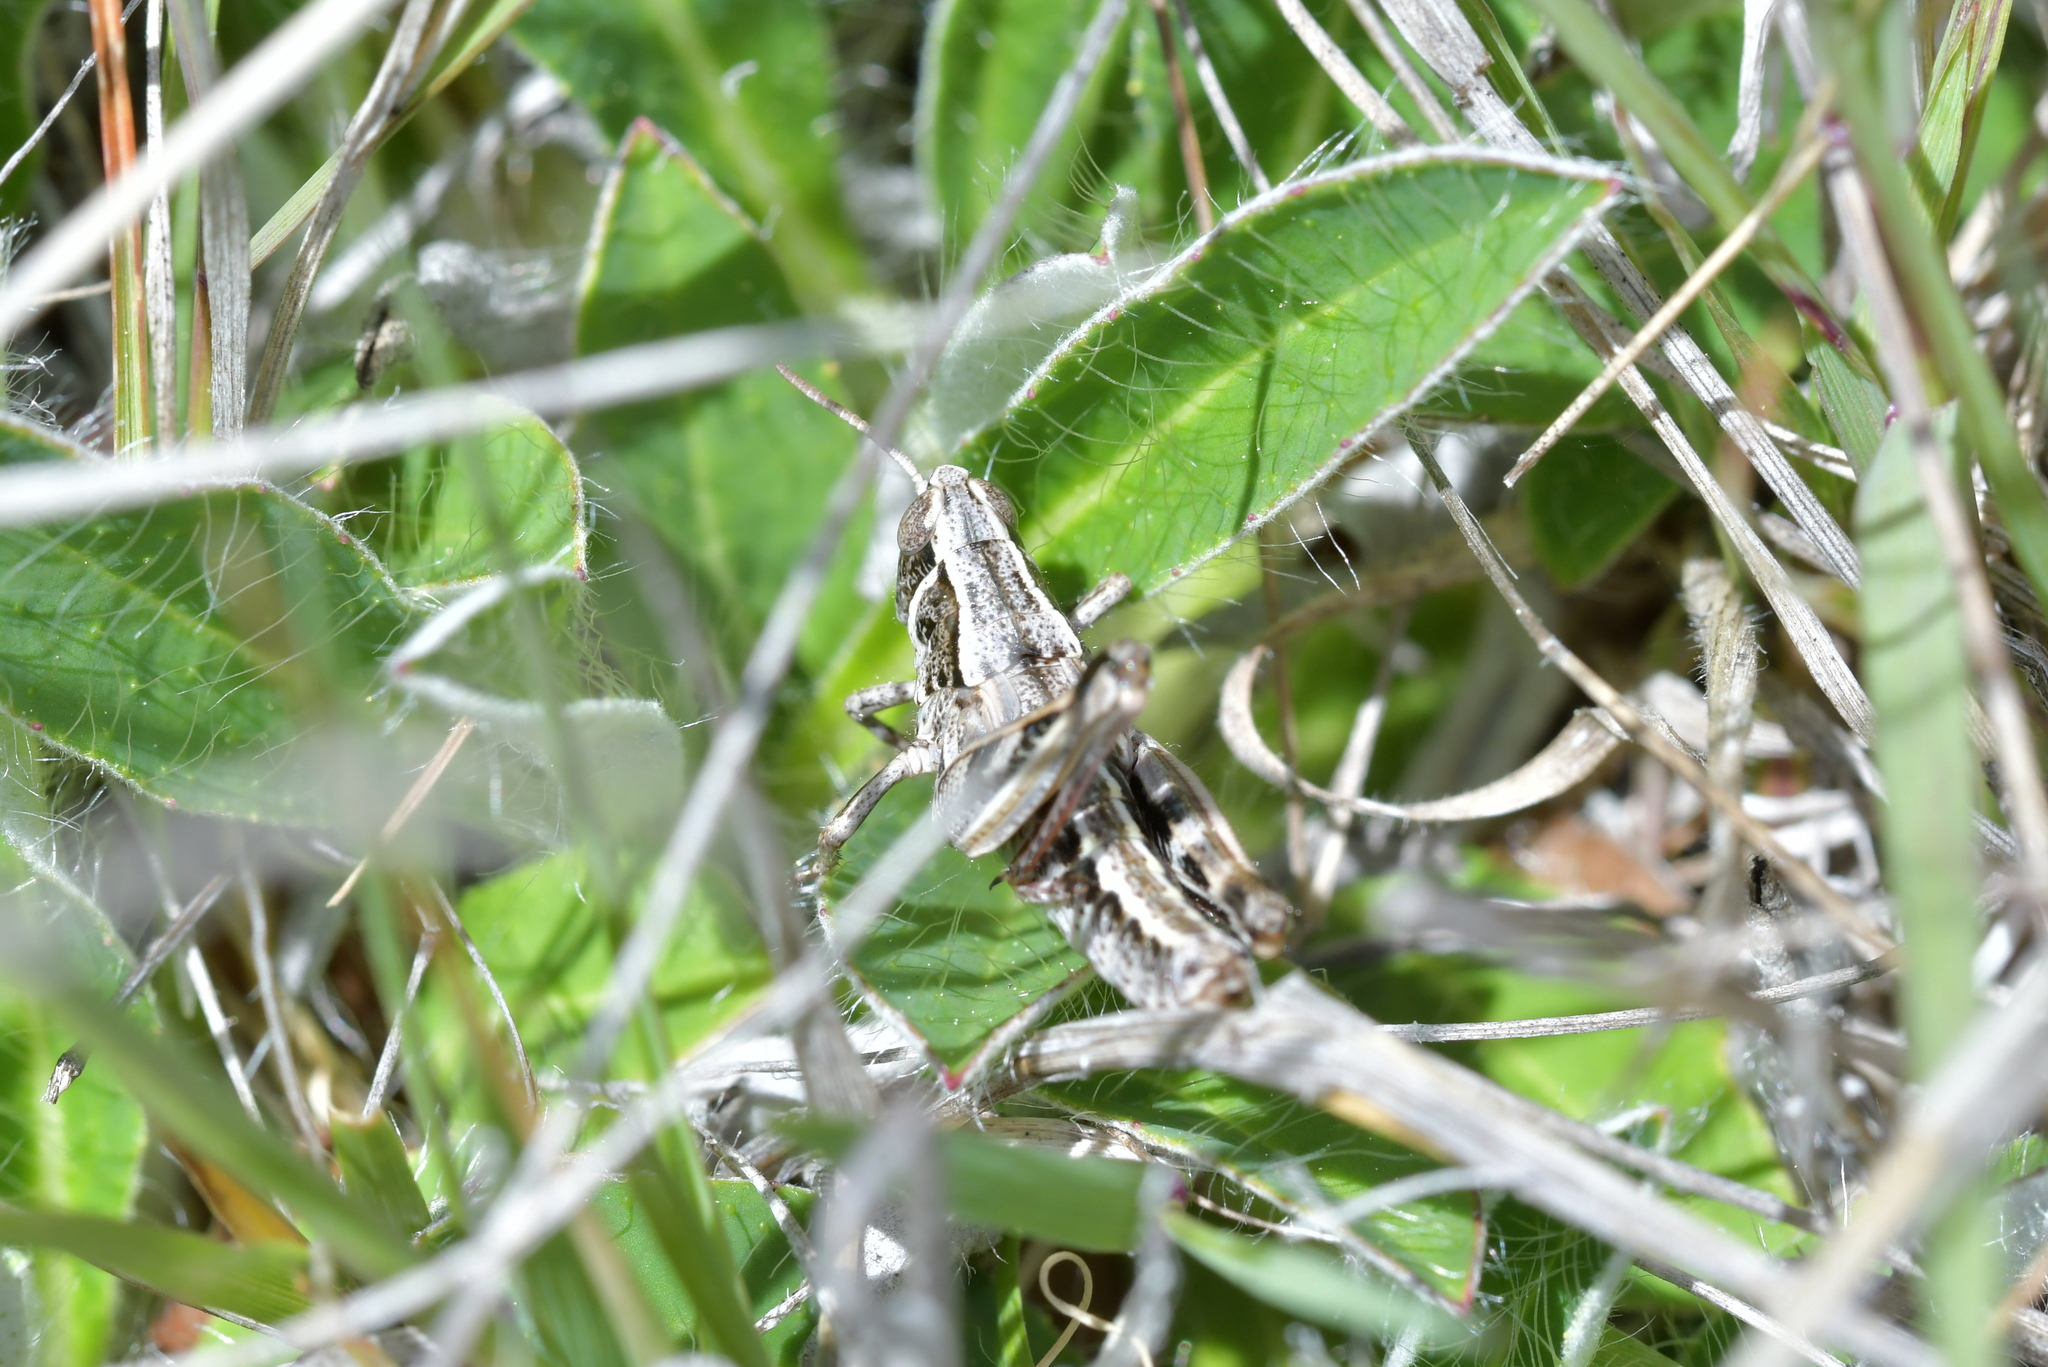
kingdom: Animalia
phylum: Arthropoda
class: Insecta
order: Orthoptera
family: Acrididae
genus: Sigaus
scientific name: Sigaus australis
